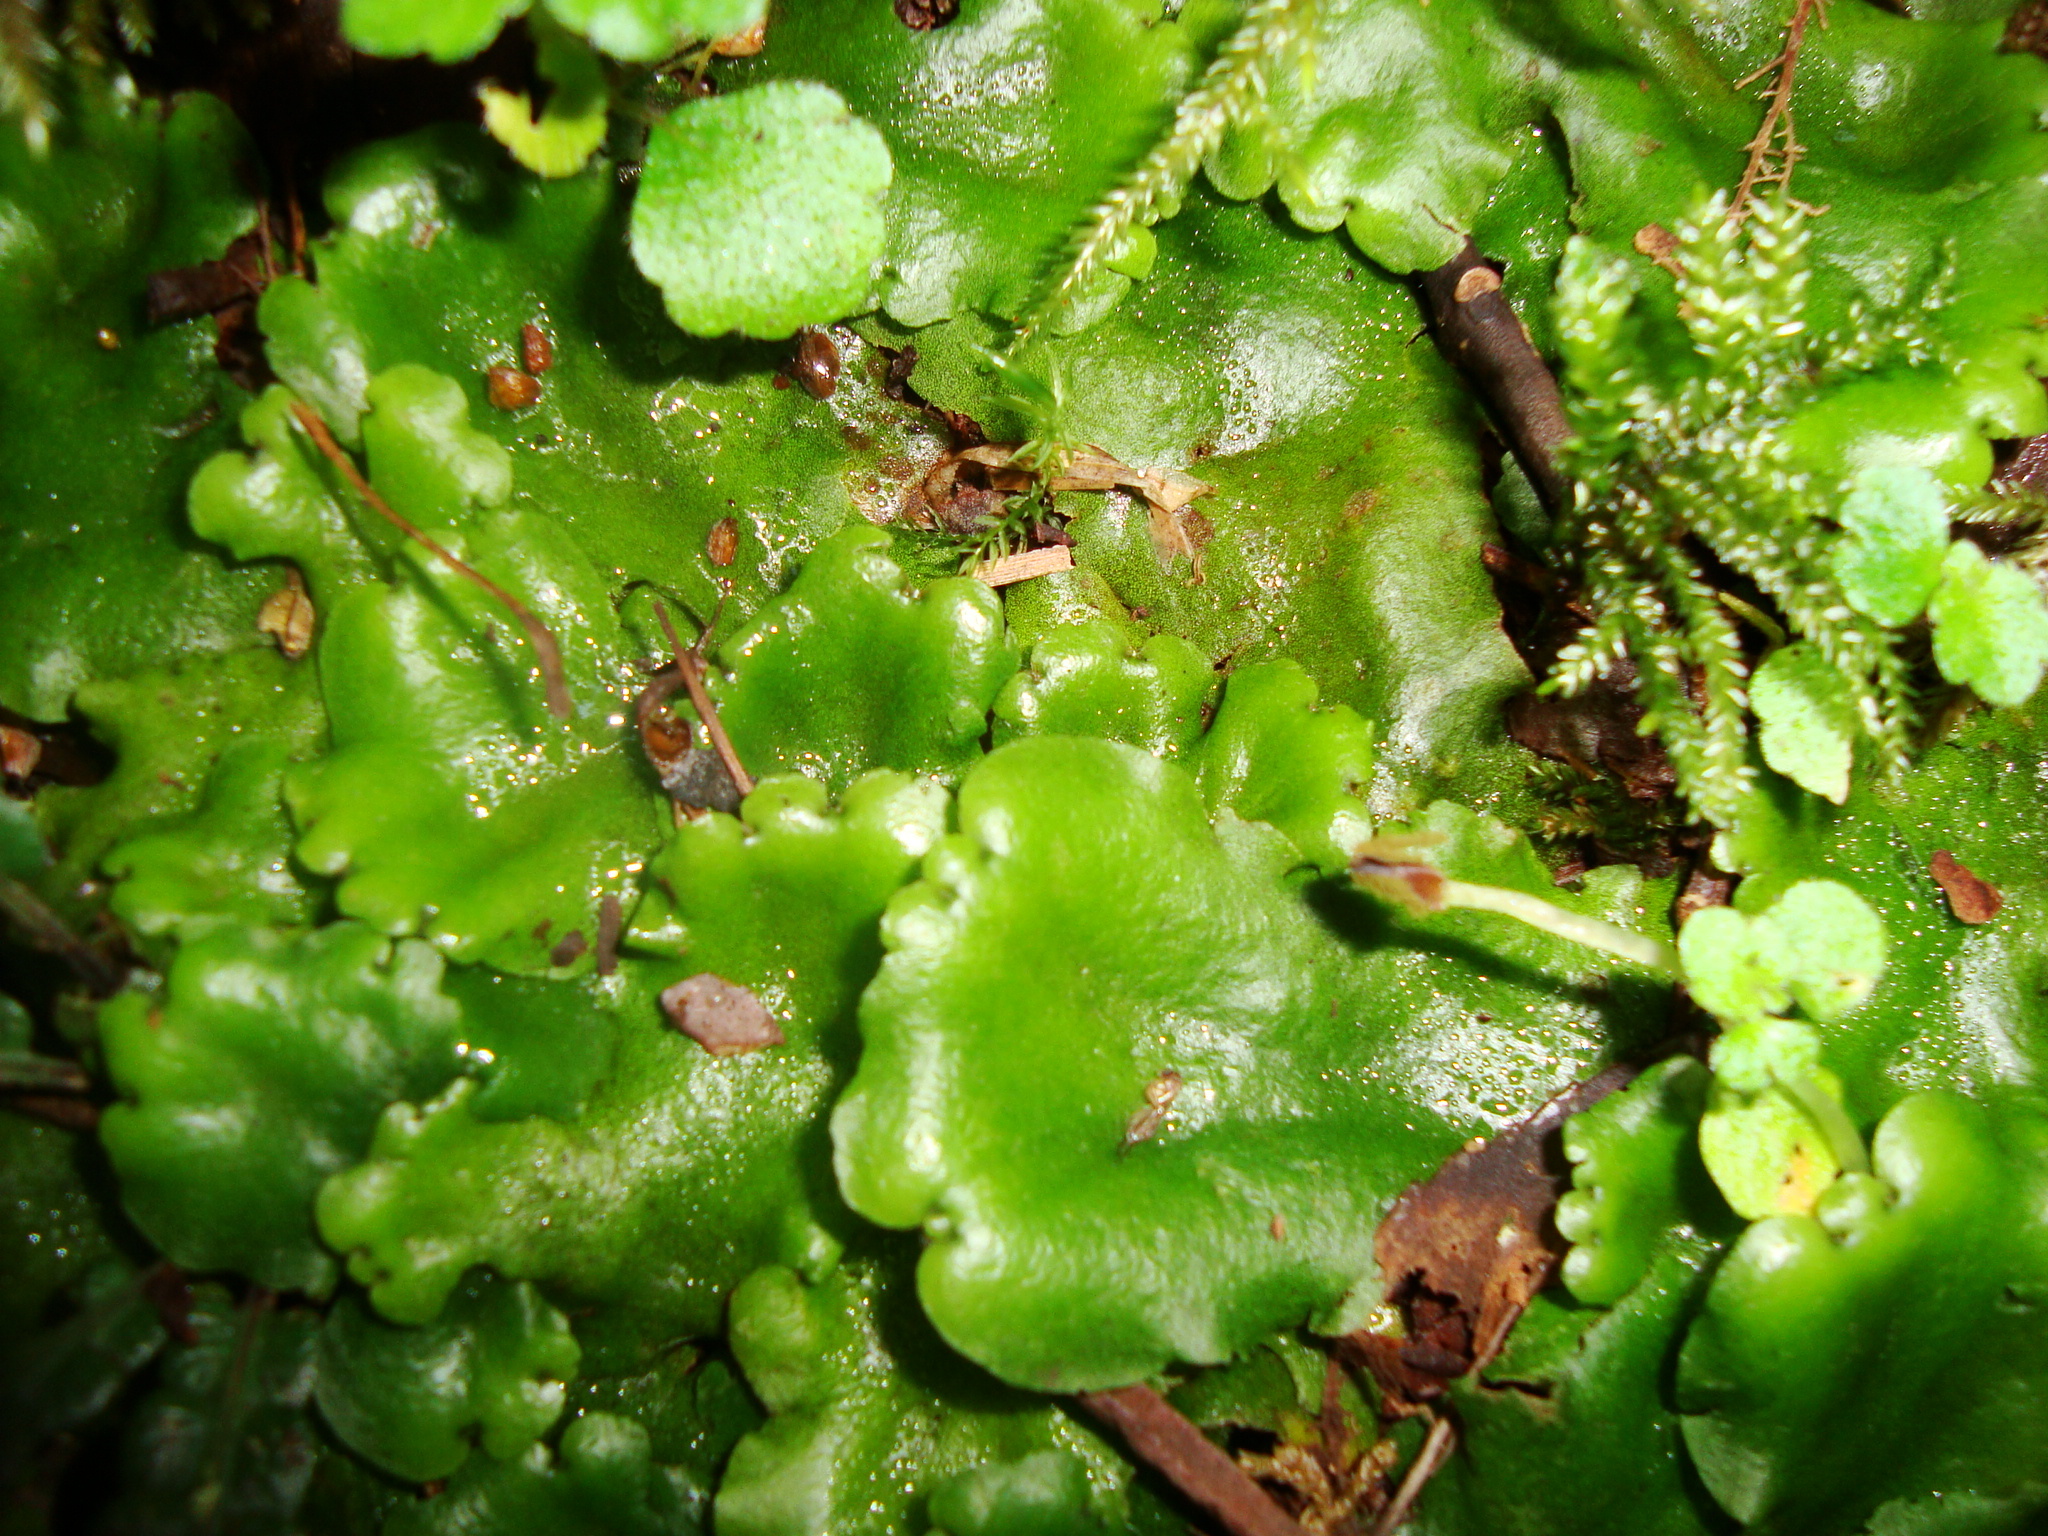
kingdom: Plantae
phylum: Marchantiophyta
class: Marchantiopsida
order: Marchantiales
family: Monocleaceae
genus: Monoclea
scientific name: Monoclea gottschei
